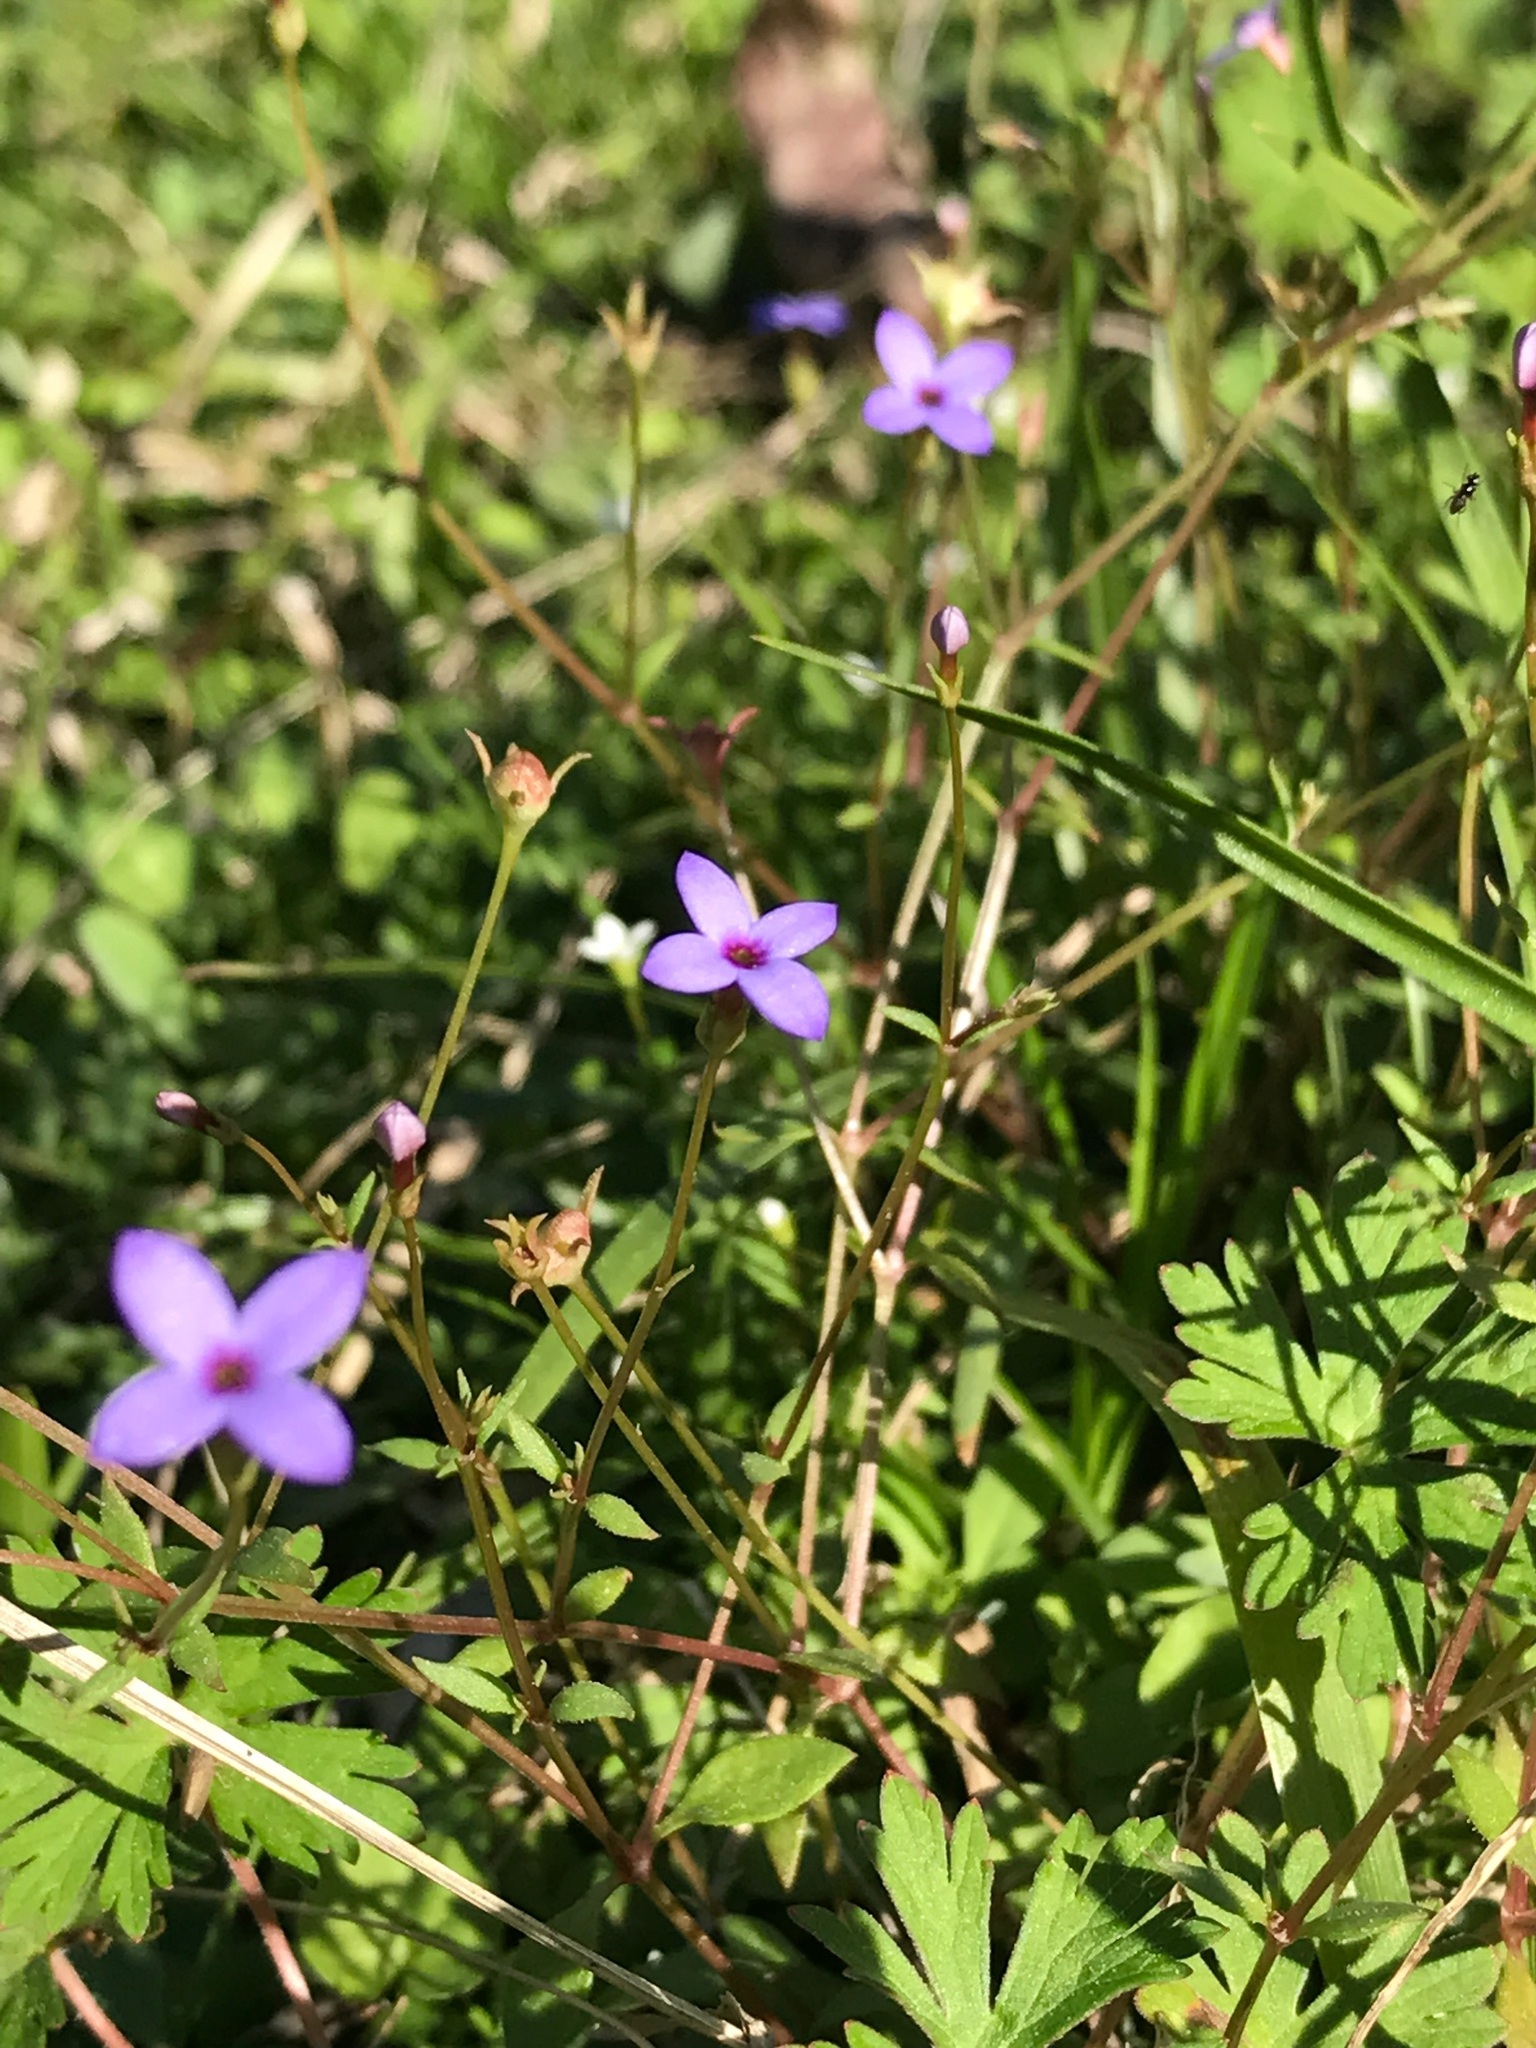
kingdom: Plantae
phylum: Tracheophyta
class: Magnoliopsida
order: Gentianales
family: Rubiaceae
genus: Houstonia
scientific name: Houstonia pusilla
